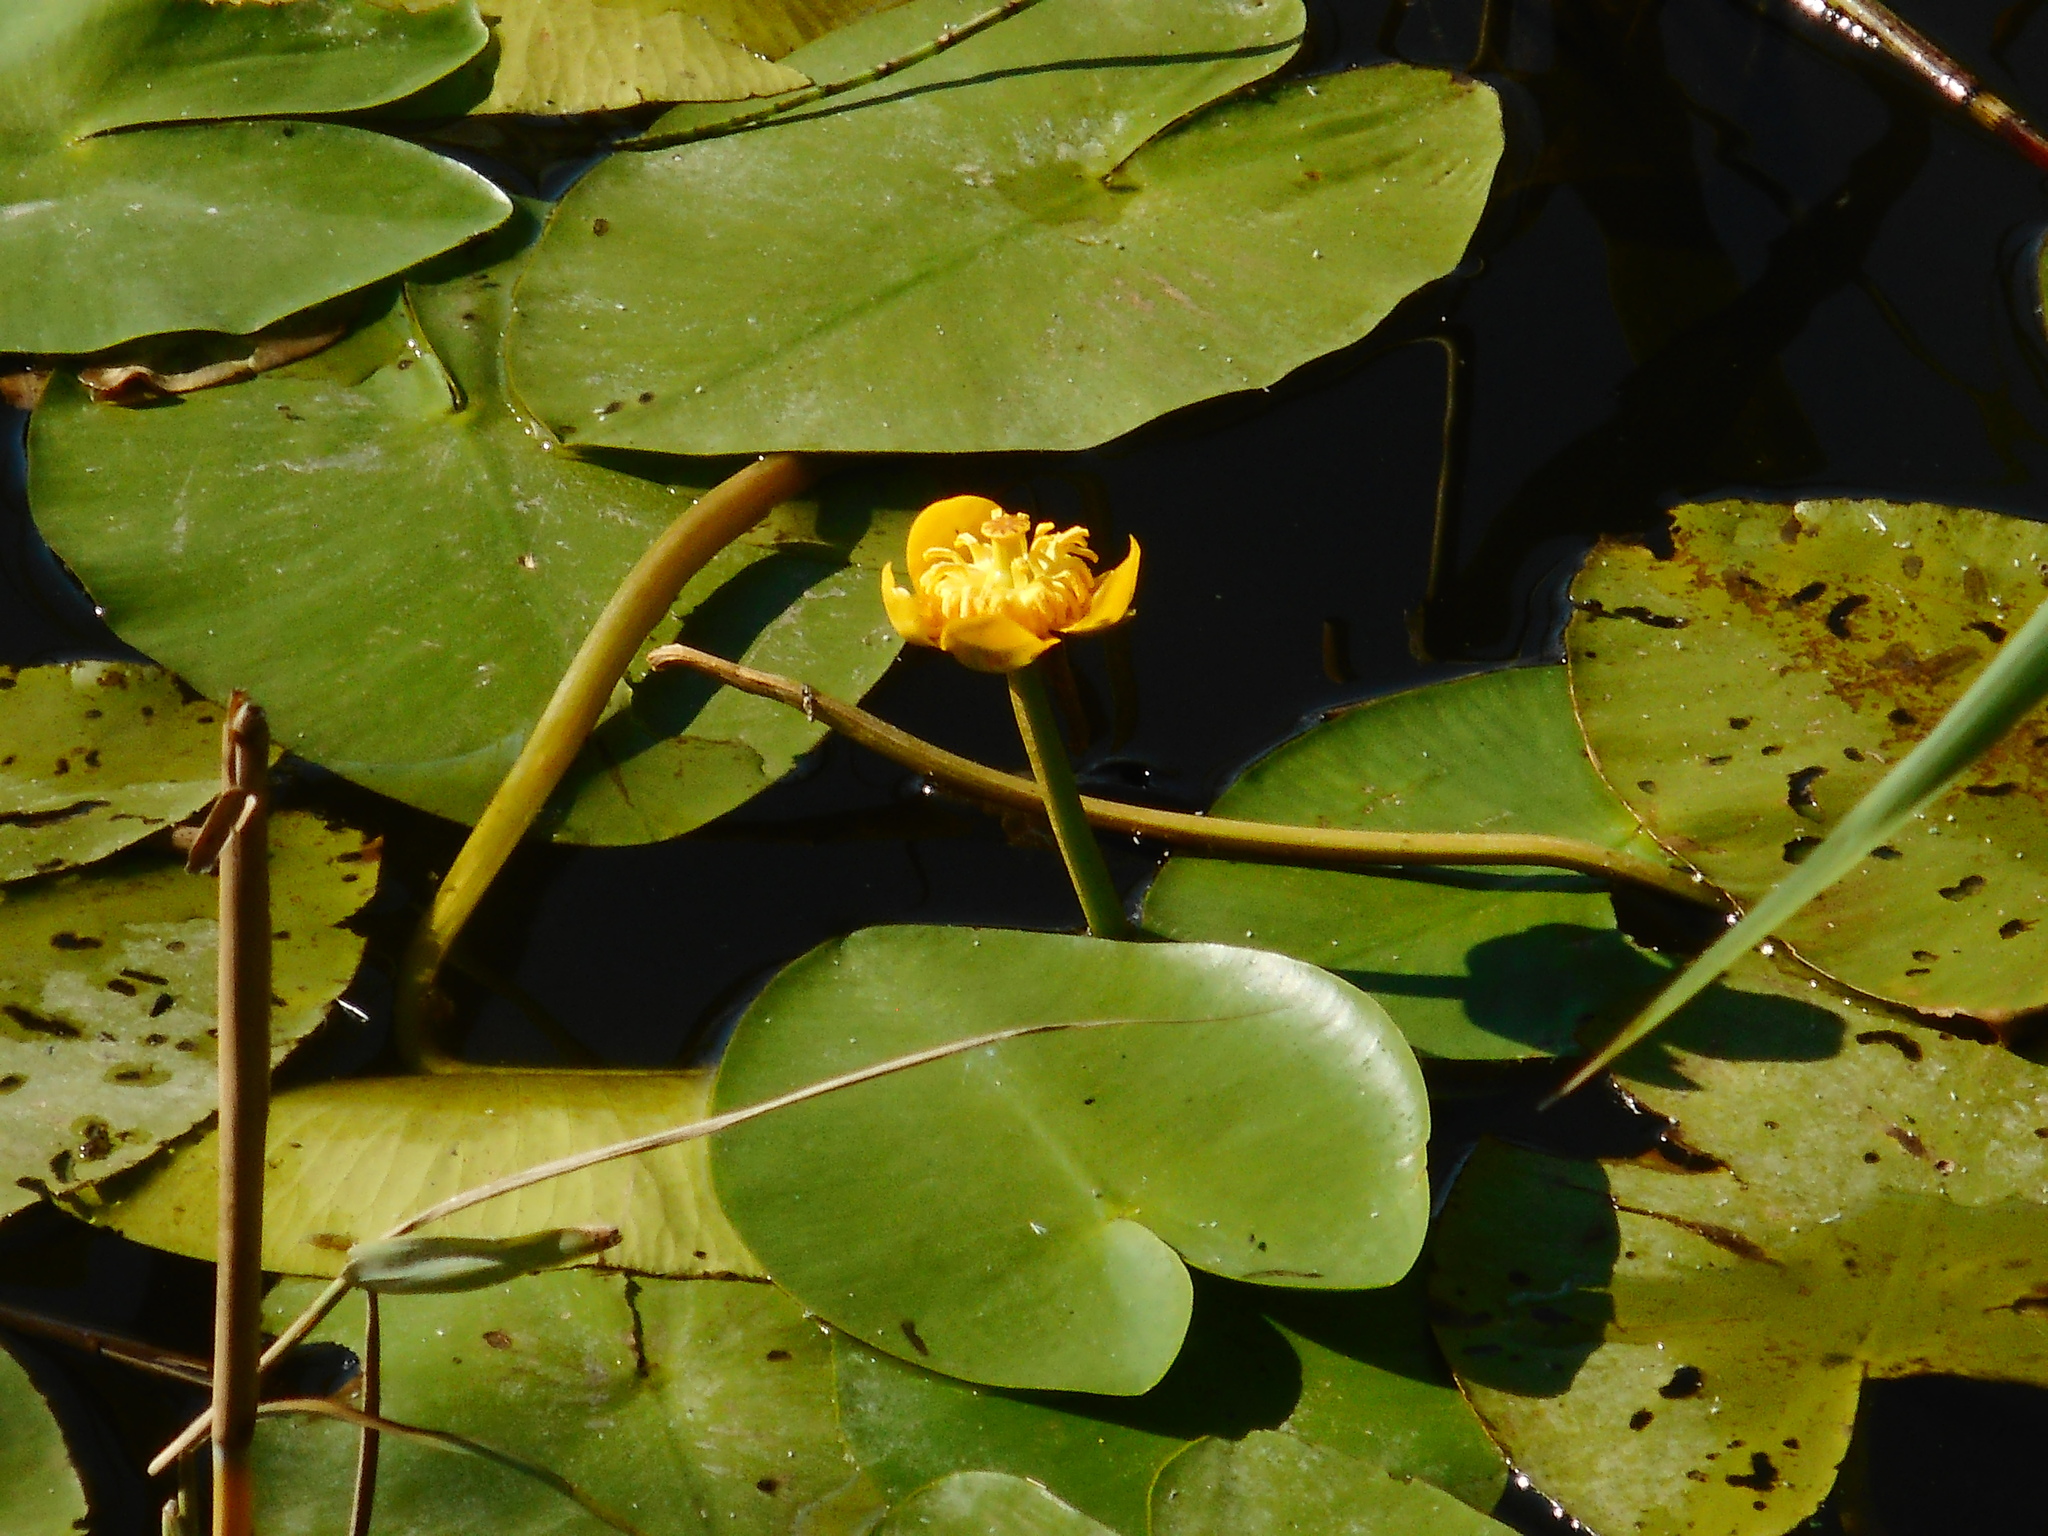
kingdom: Plantae
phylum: Tracheophyta
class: Magnoliopsida
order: Nymphaeales
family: Nymphaeaceae
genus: Nuphar
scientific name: Nuphar lutea
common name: Yellow water-lily
